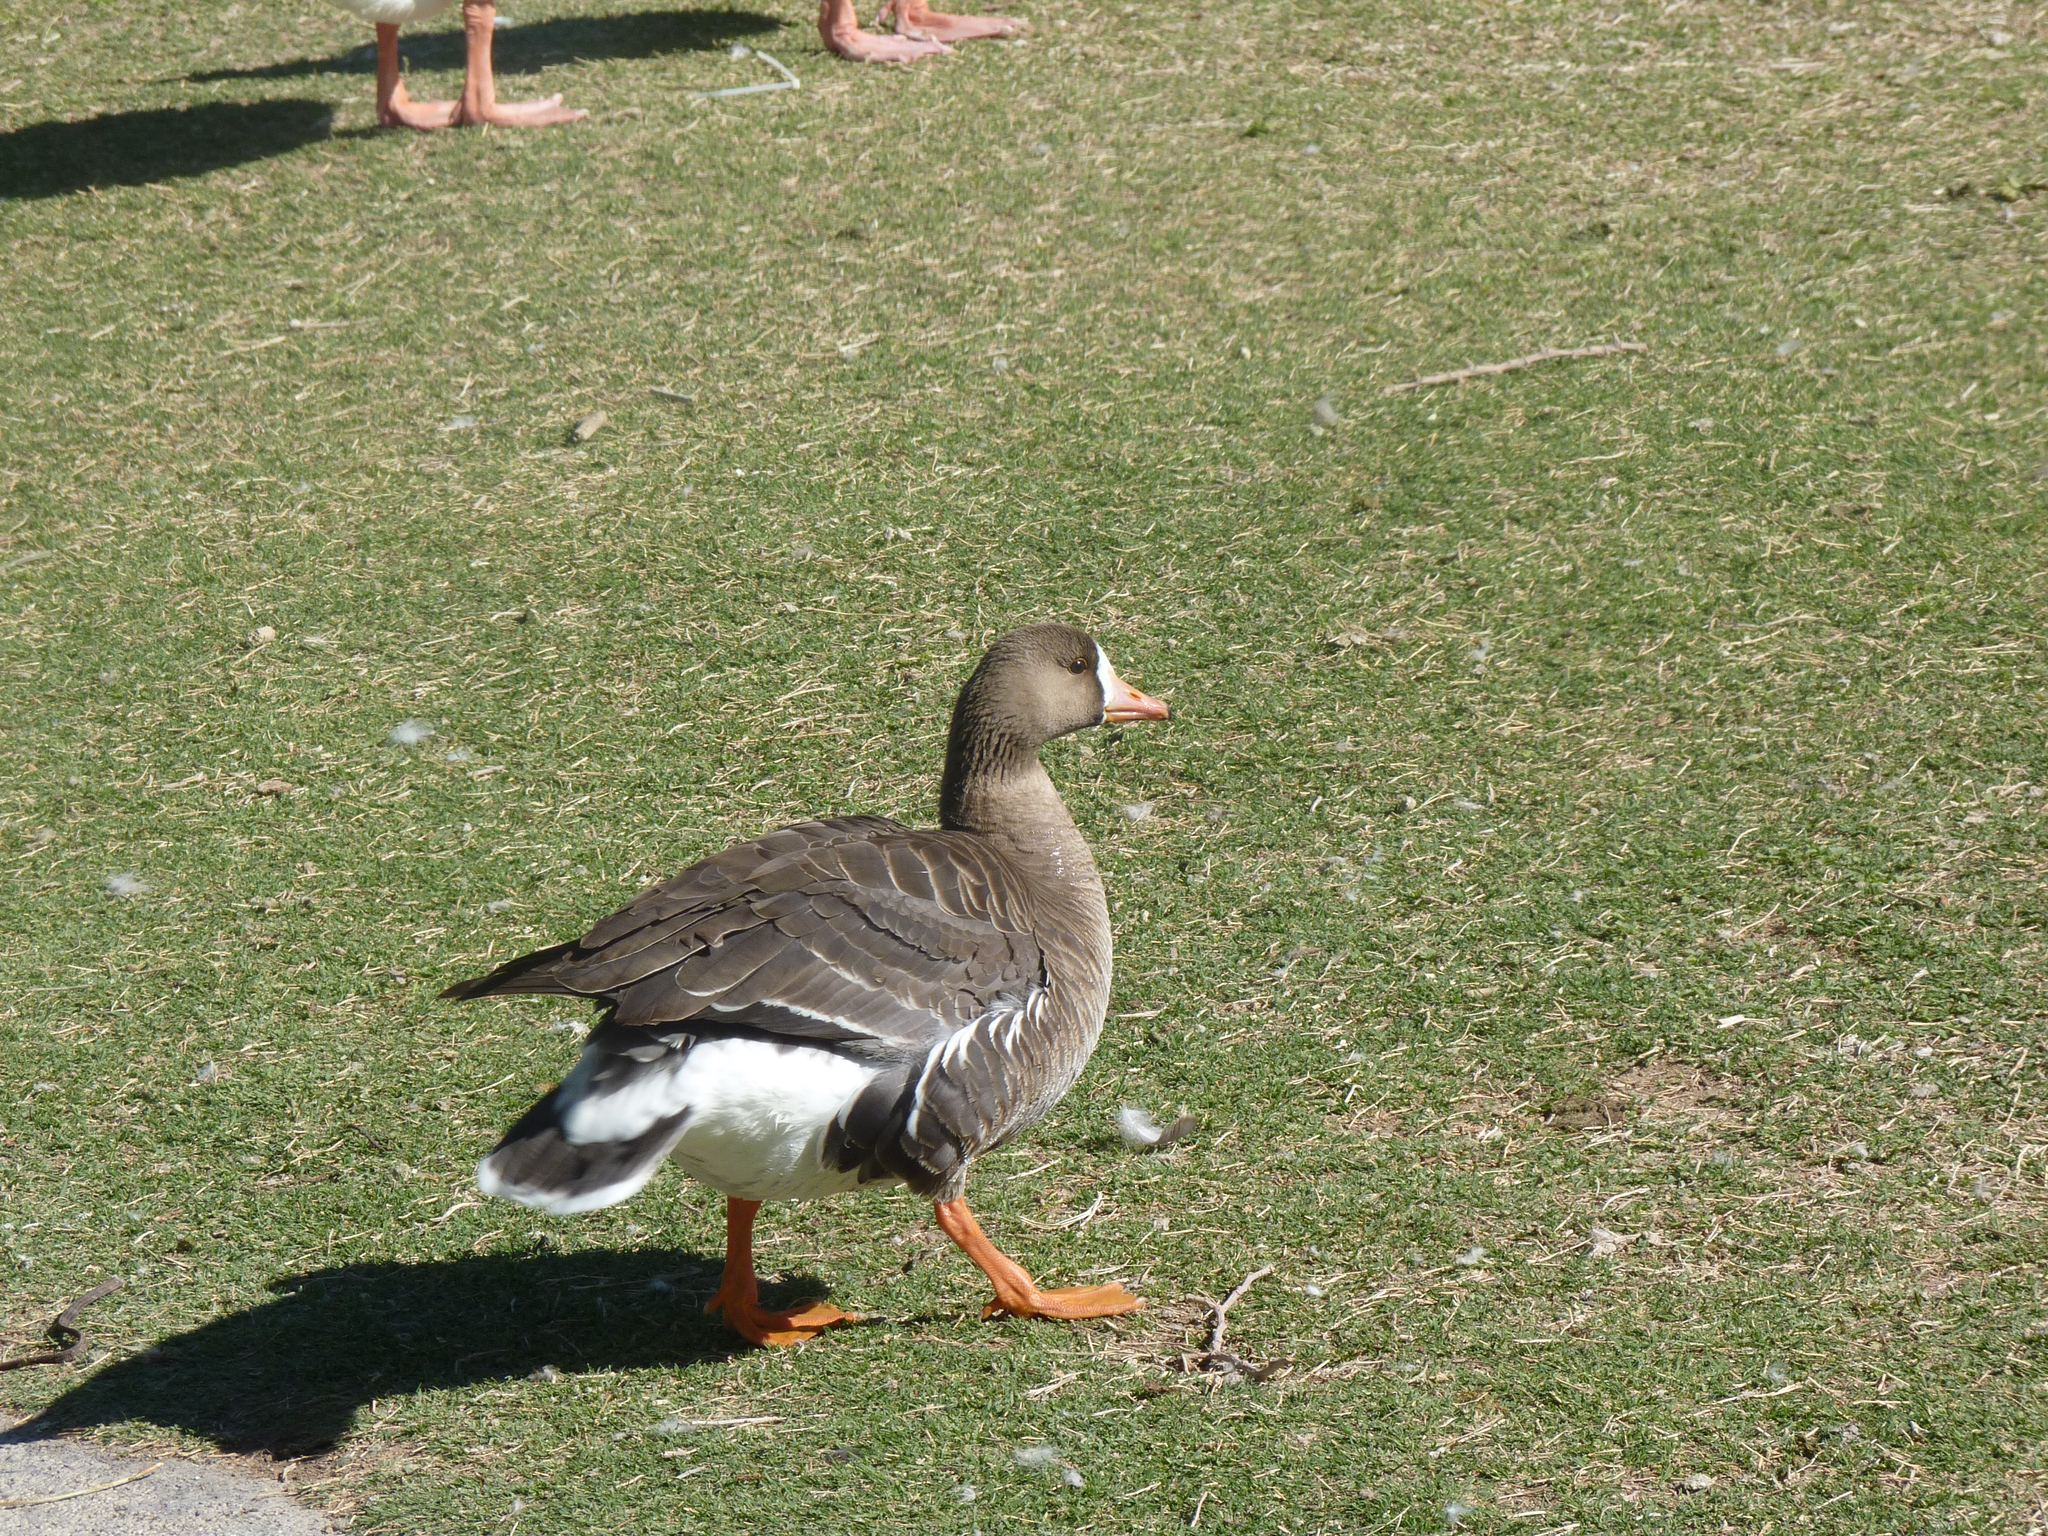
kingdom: Animalia
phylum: Chordata
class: Aves
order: Anseriformes
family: Anatidae
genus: Anser
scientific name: Anser albifrons
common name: Greater white-fronted goose
